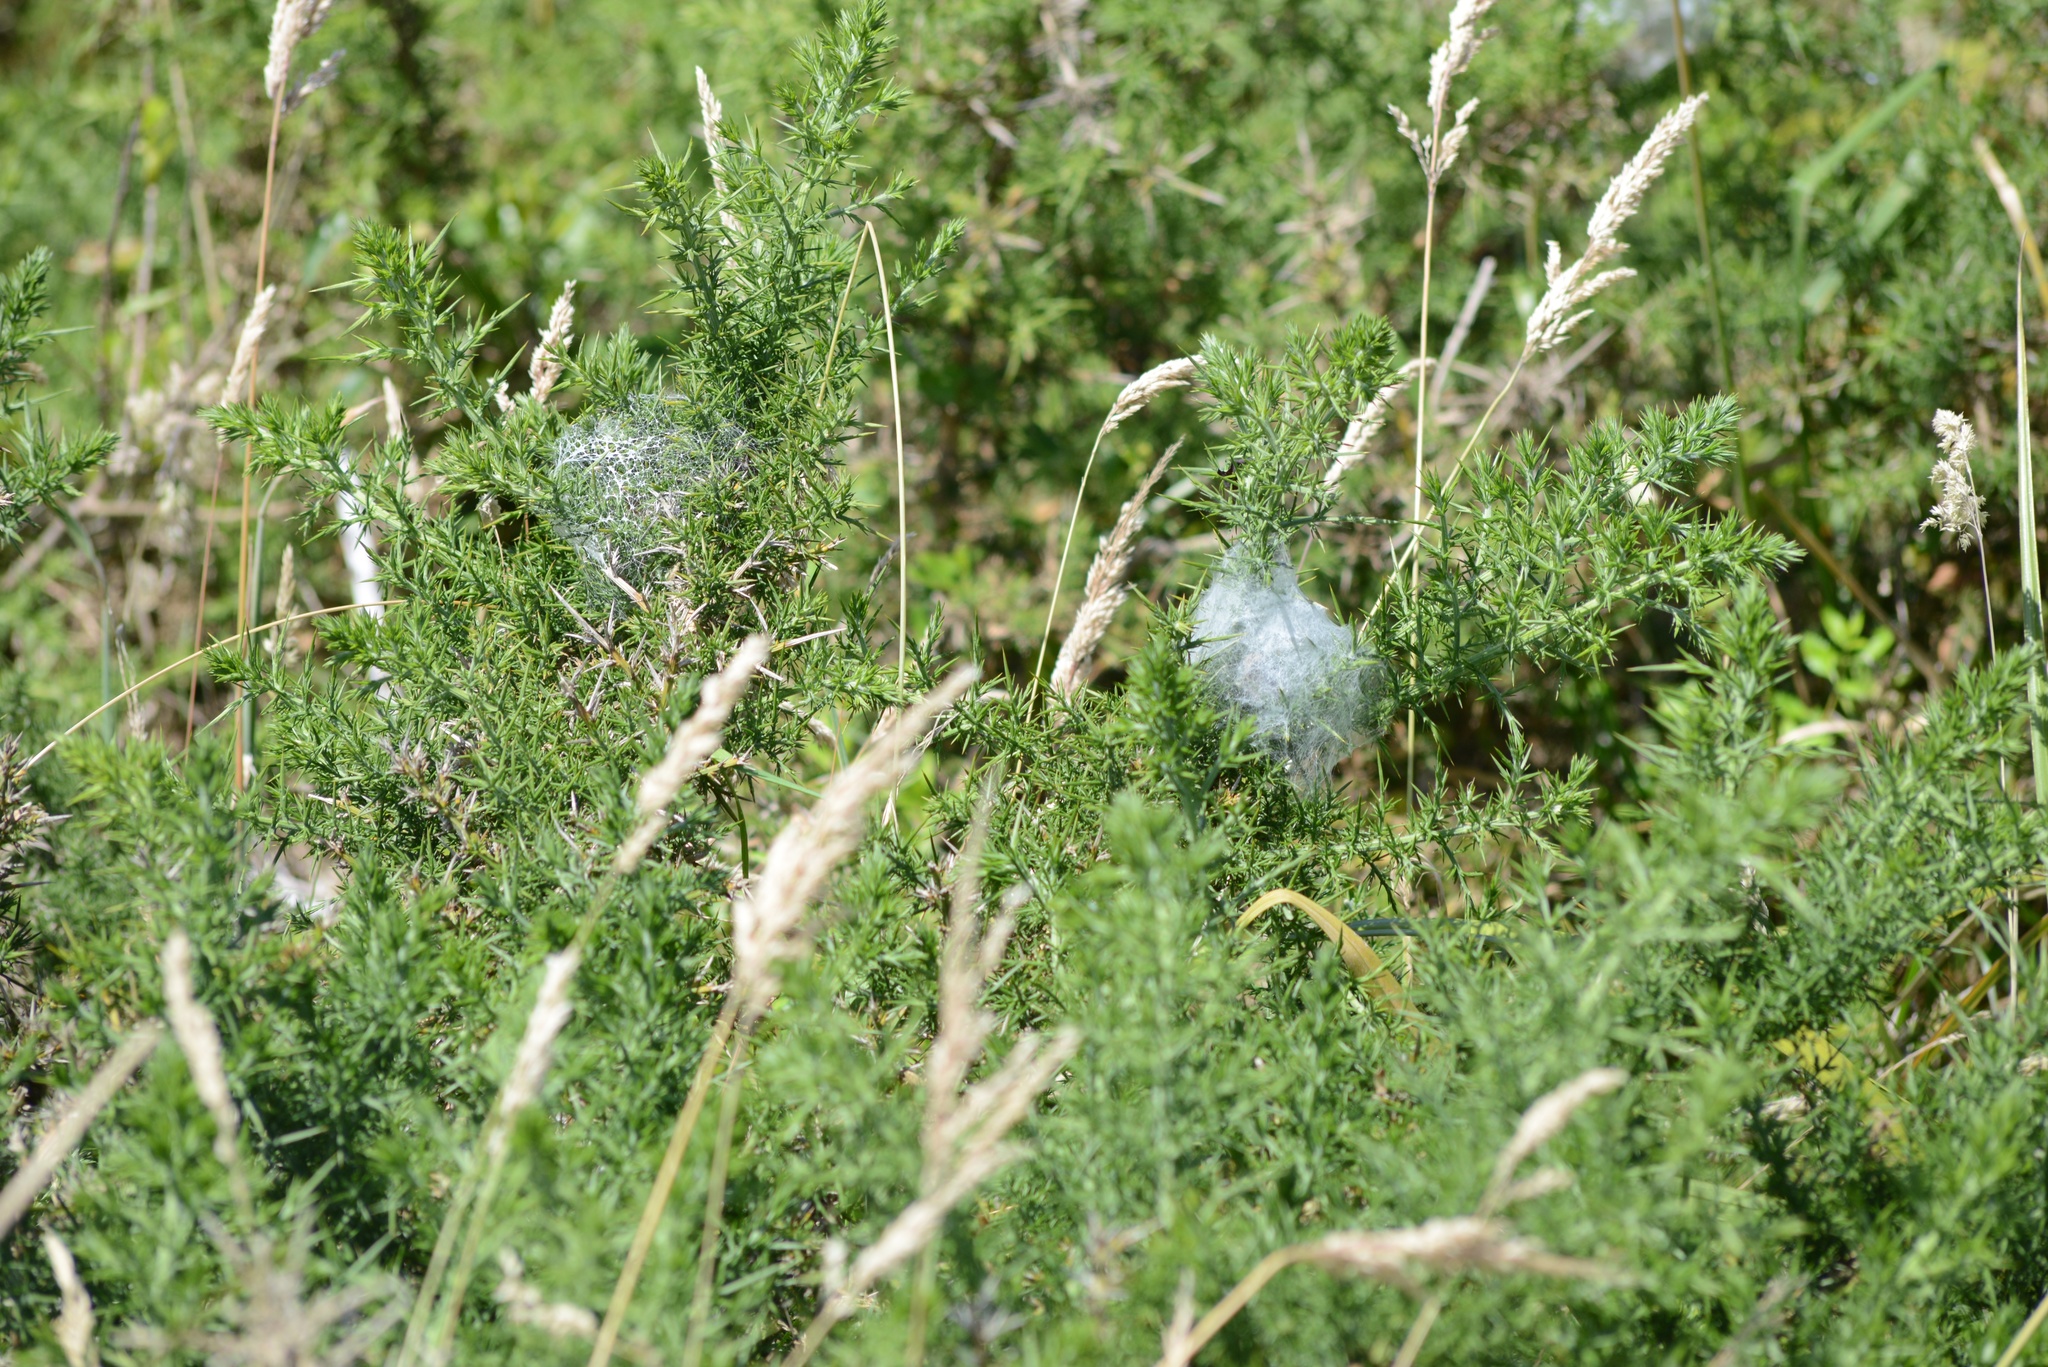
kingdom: Animalia
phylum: Arthropoda
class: Arachnida
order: Araneae
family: Pisauridae
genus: Dolomedes
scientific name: Dolomedes minor
